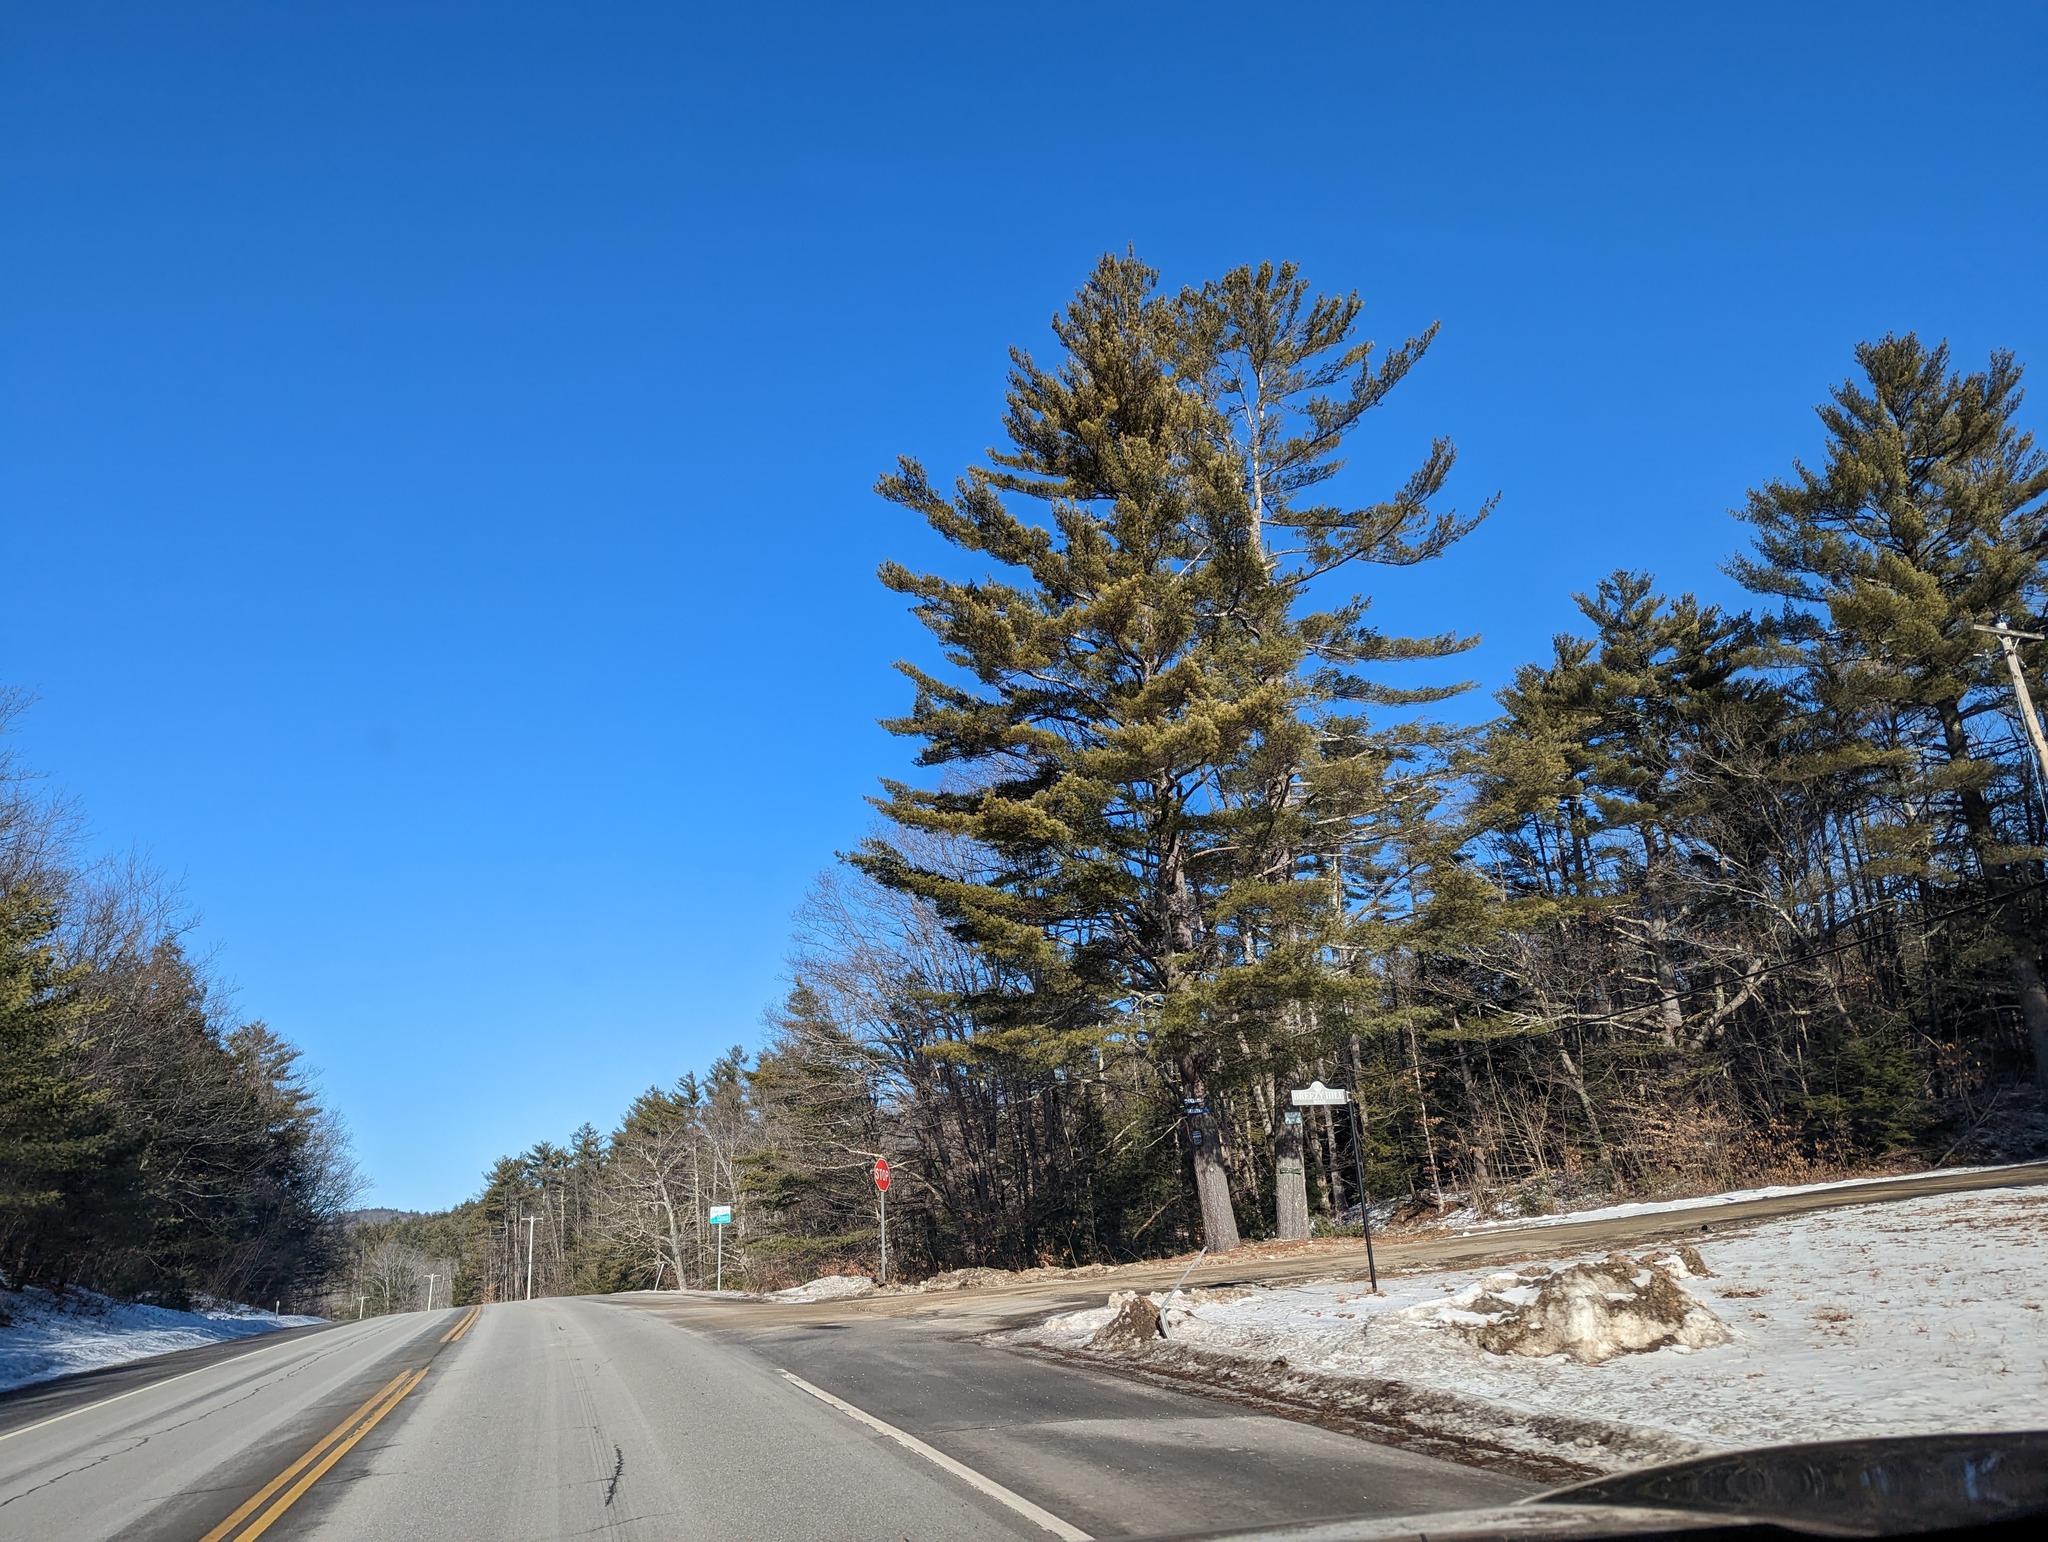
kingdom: Plantae
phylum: Tracheophyta
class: Pinopsida
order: Pinales
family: Pinaceae
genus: Pinus
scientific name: Pinus strobus
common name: Weymouth pine
